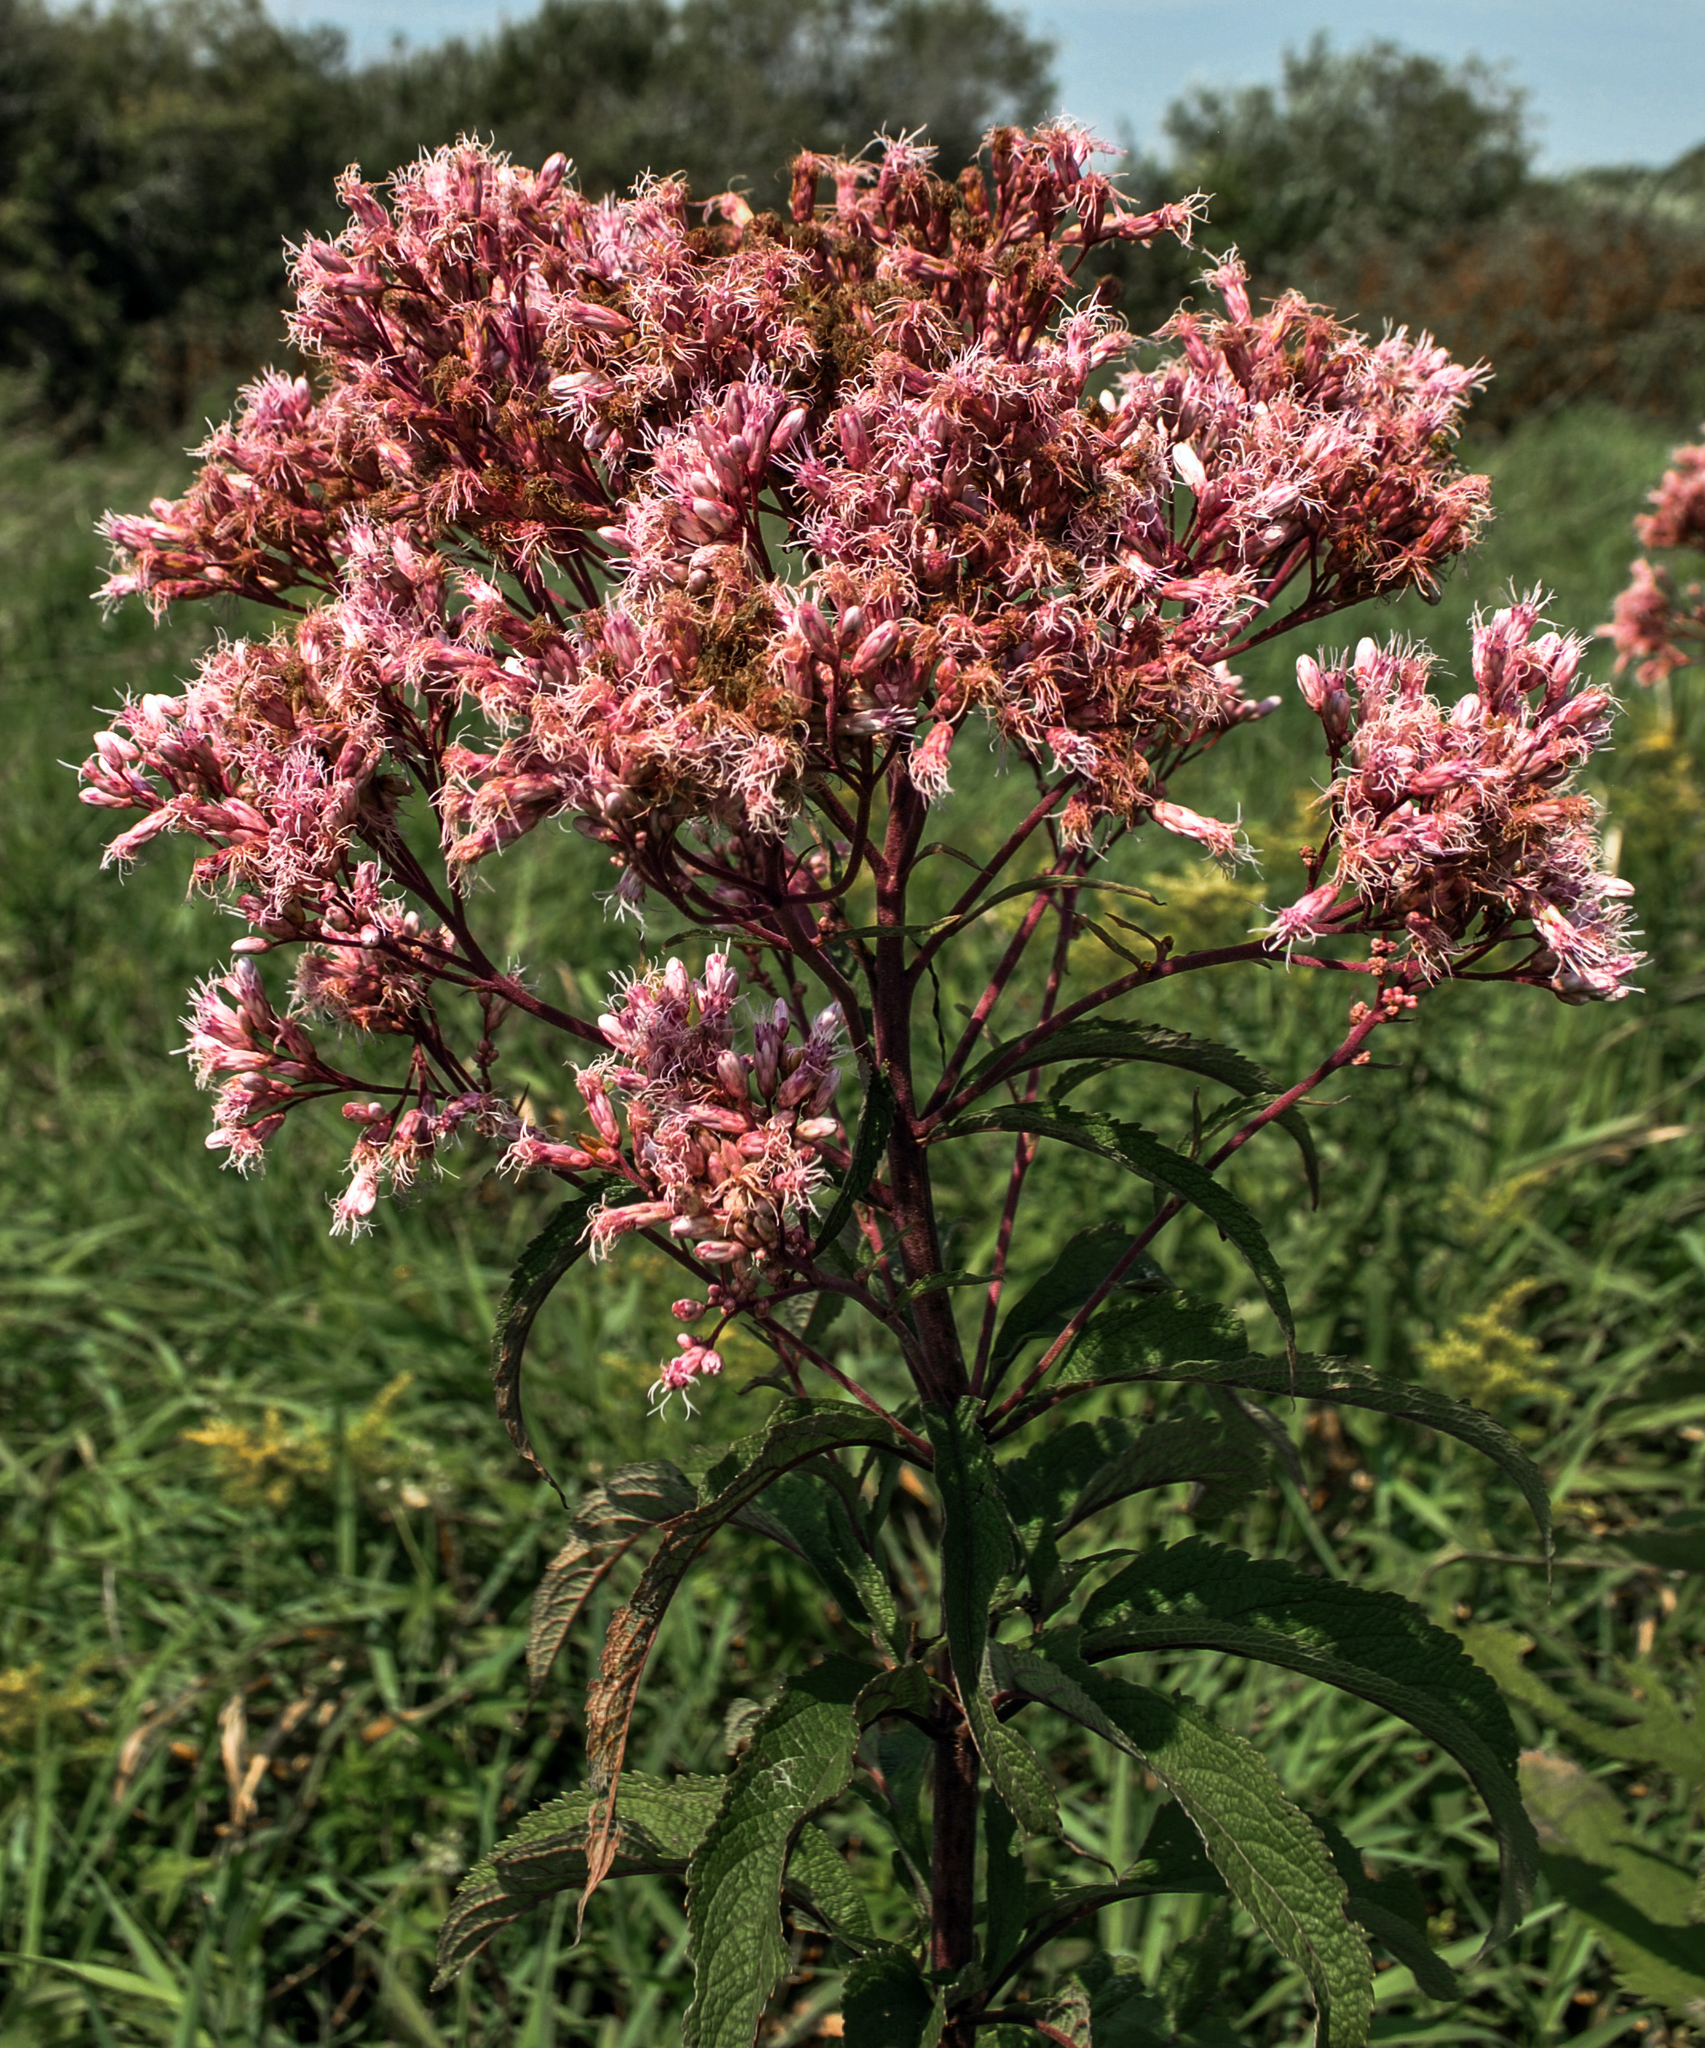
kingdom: Plantae
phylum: Tracheophyta
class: Magnoliopsida
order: Asterales
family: Asteraceae
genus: Eutrochium
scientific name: Eutrochium maculatum
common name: Spotted joe pye weed
